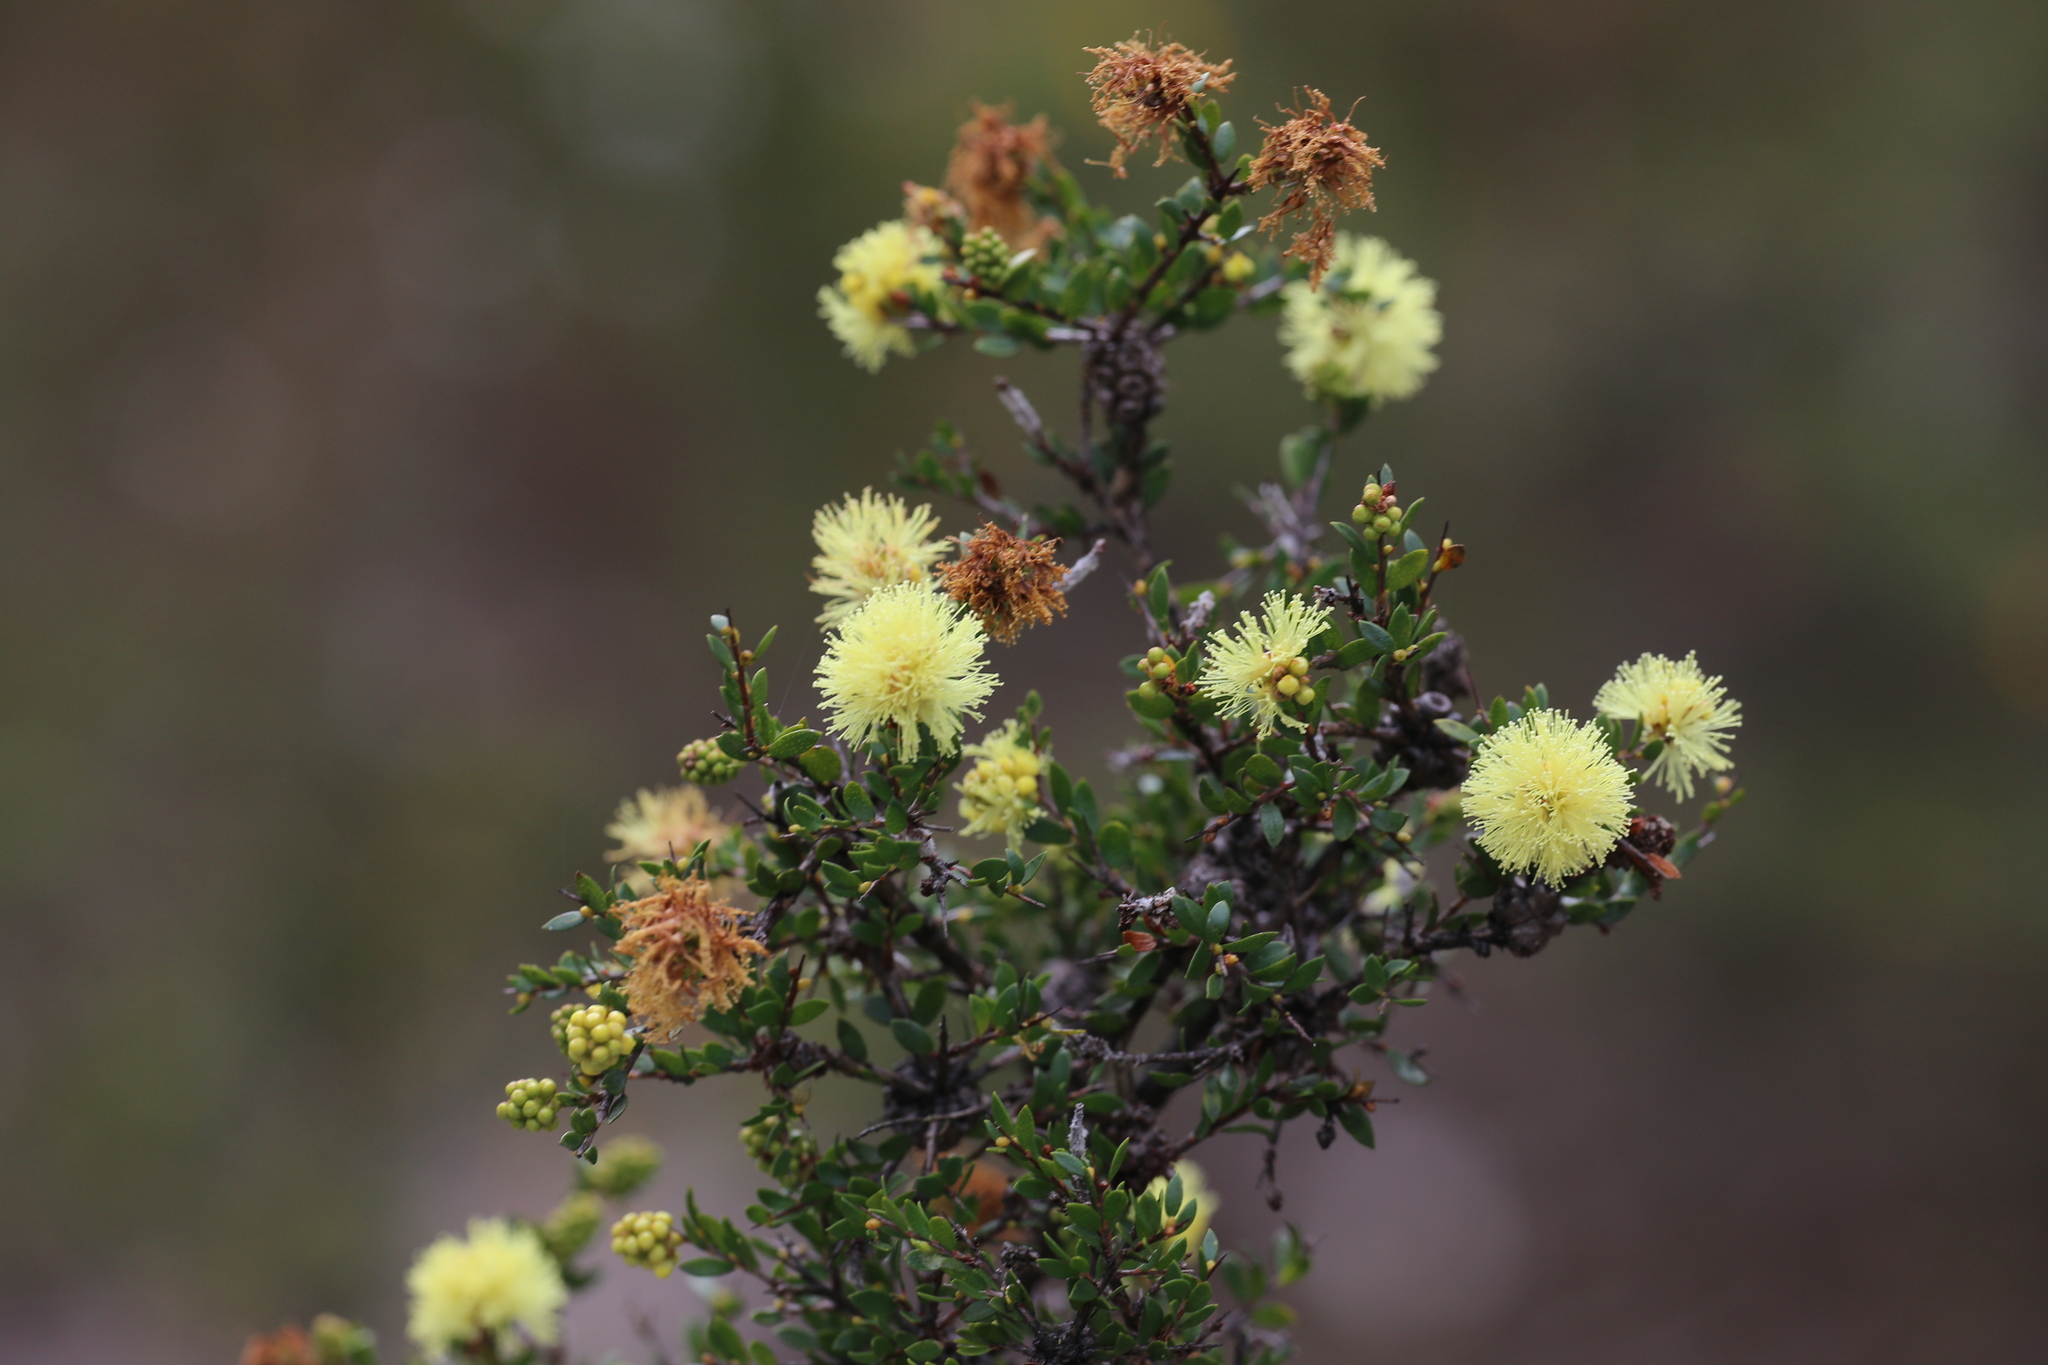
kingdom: Plantae
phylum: Tracheophyta
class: Magnoliopsida
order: Myrtales
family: Myrtaceae
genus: Melaleuca
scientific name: Melaleuca thymoides
